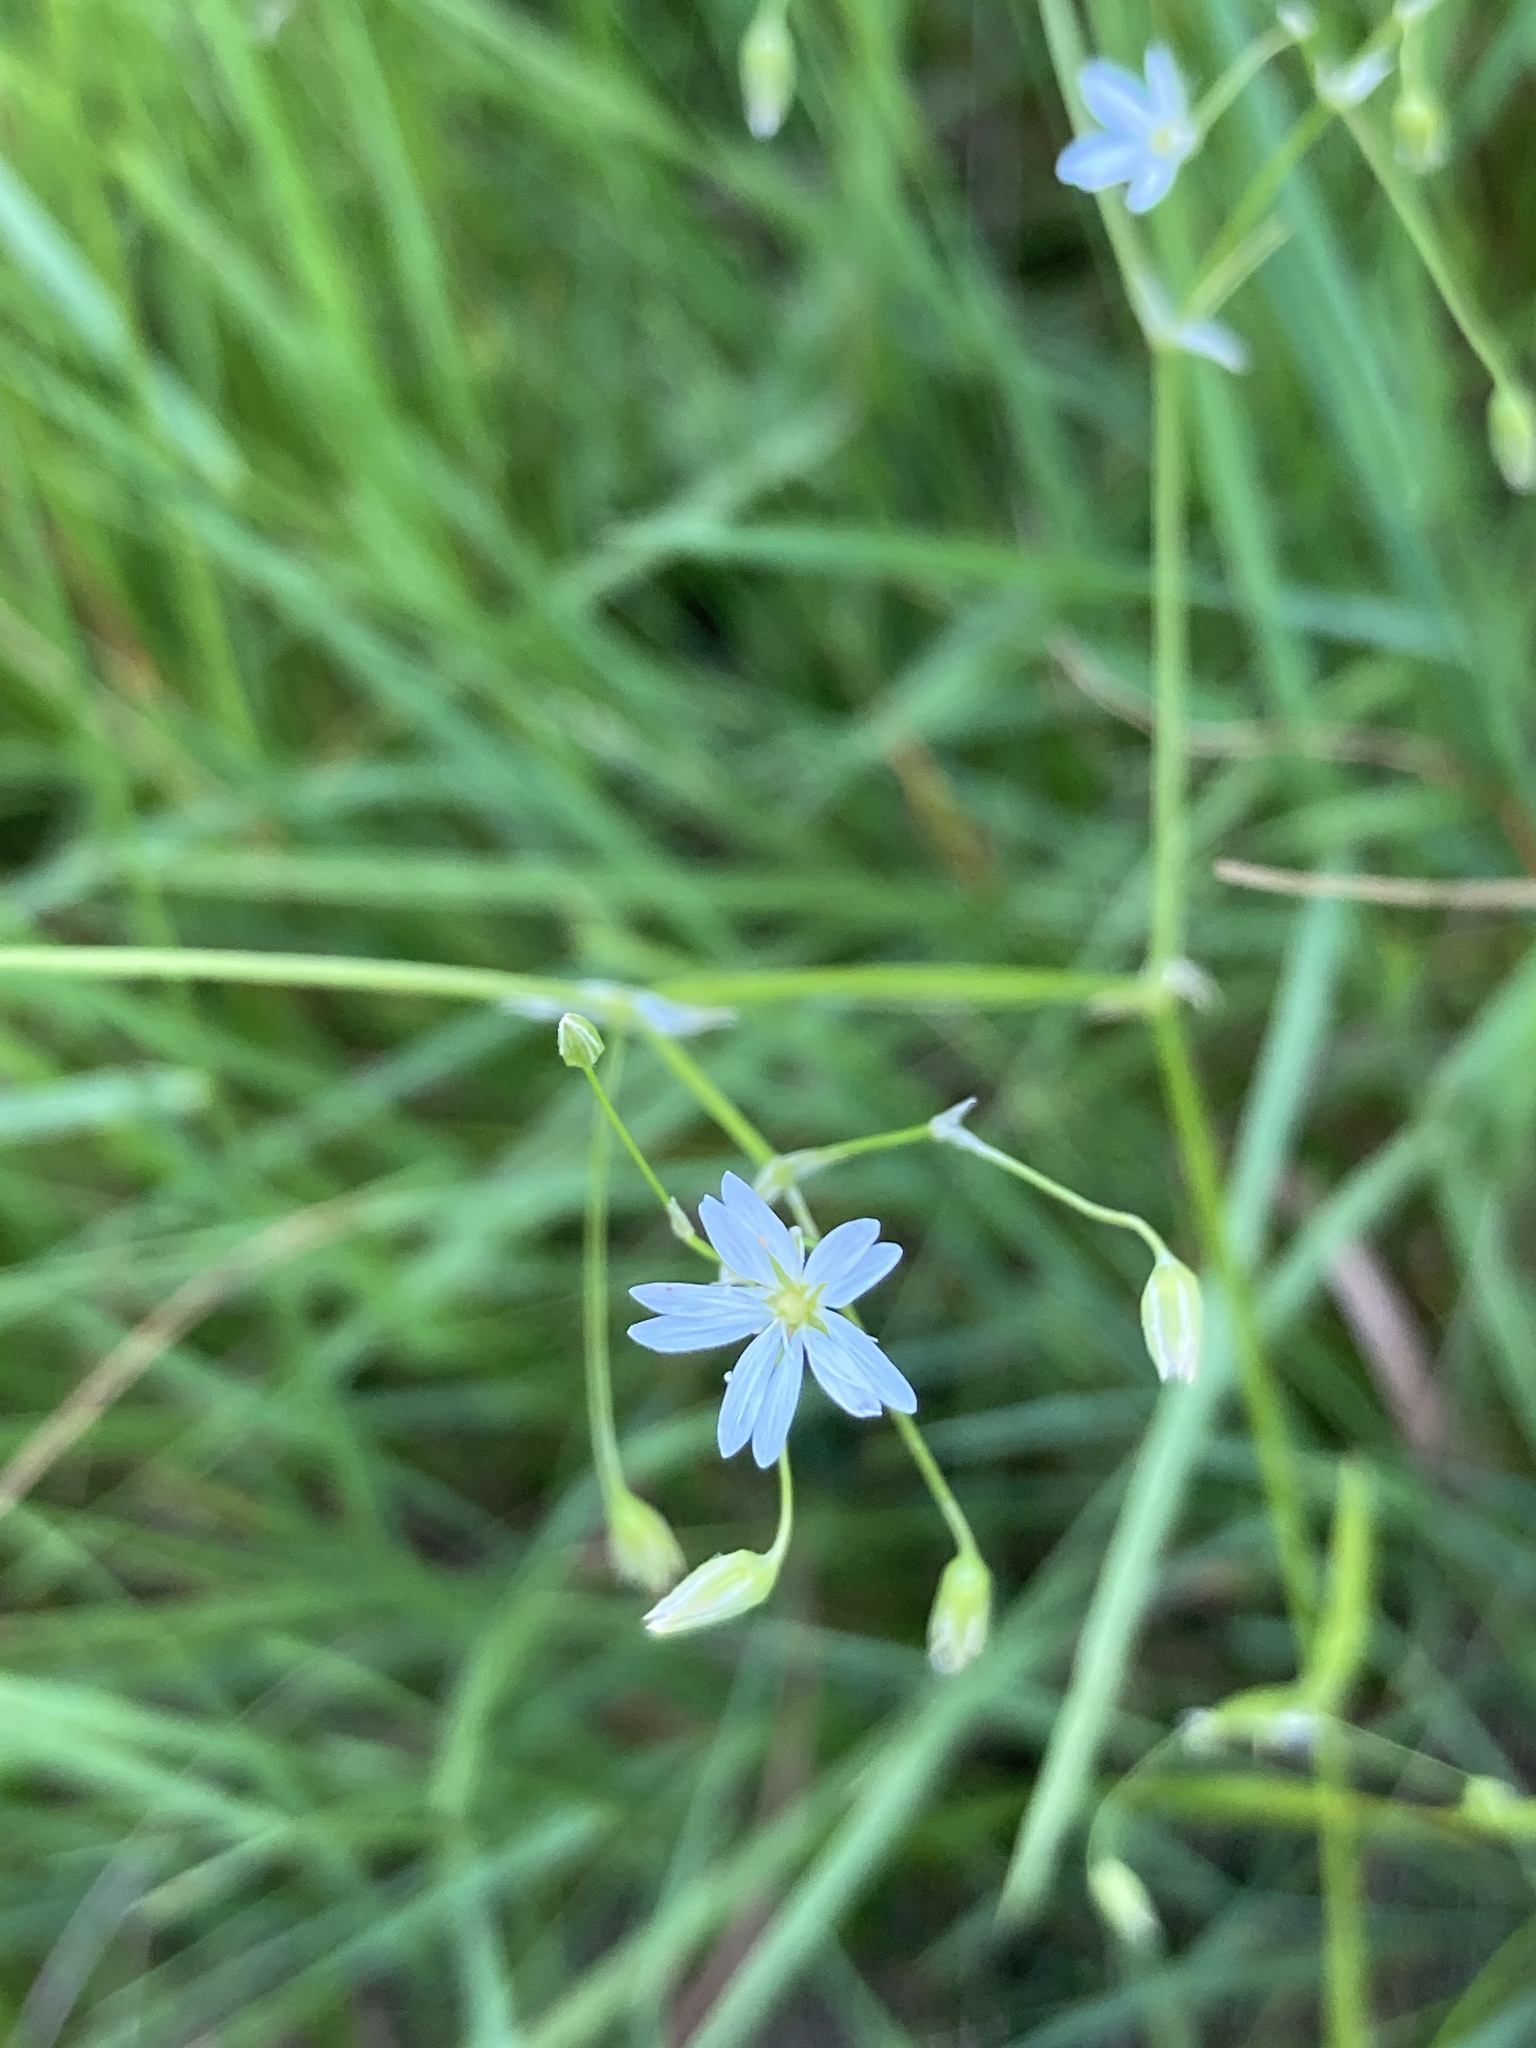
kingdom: Plantae
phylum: Tracheophyta
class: Magnoliopsida
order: Caryophyllales
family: Caryophyllaceae
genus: Stellaria
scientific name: Stellaria graminea
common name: Grass-like starwort
